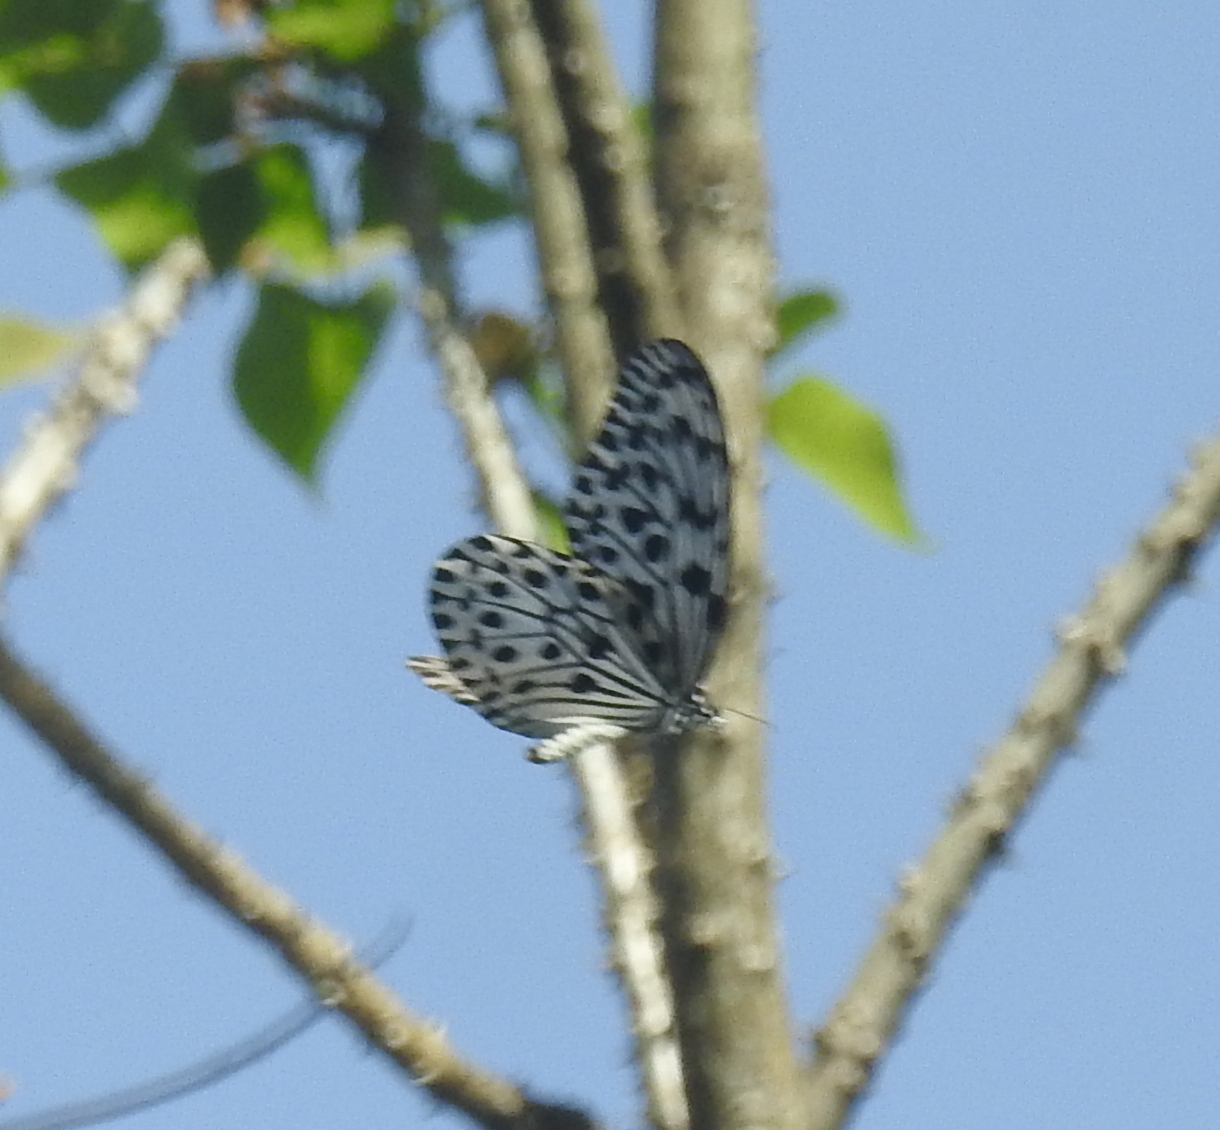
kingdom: Animalia
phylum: Arthropoda
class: Insecta
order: Lepidoptera
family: Nymphalidae
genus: Idea
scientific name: Idea malabarica
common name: Malabar tree-nymph
